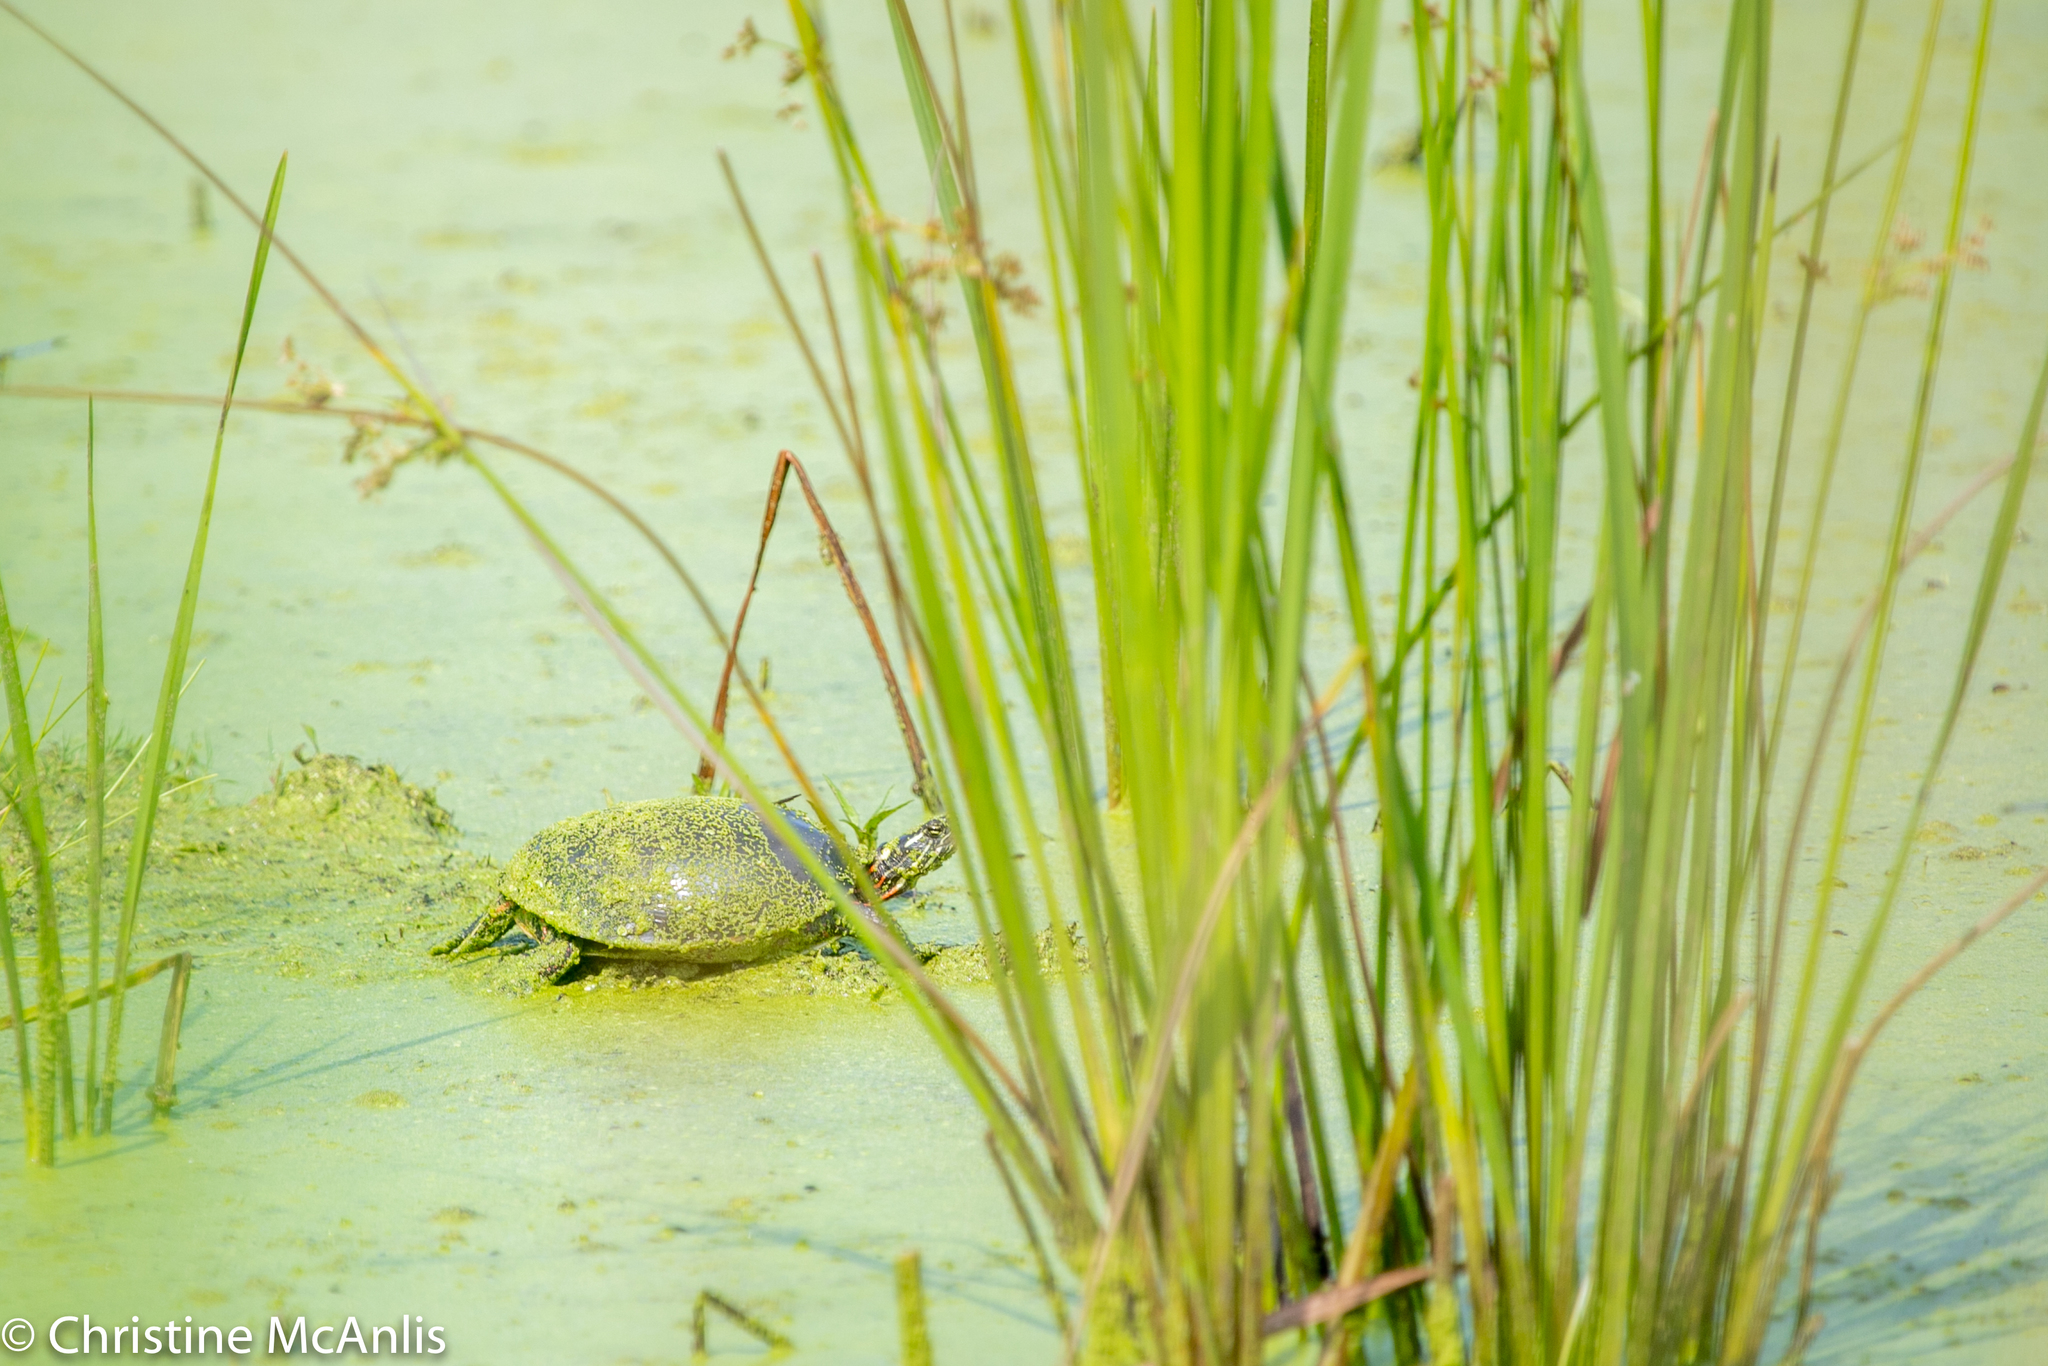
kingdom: Animalia
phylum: Chordata
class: Testudines
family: Emydidae
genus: Chrysemys
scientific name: Chrysemys picta
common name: Painted turtle
